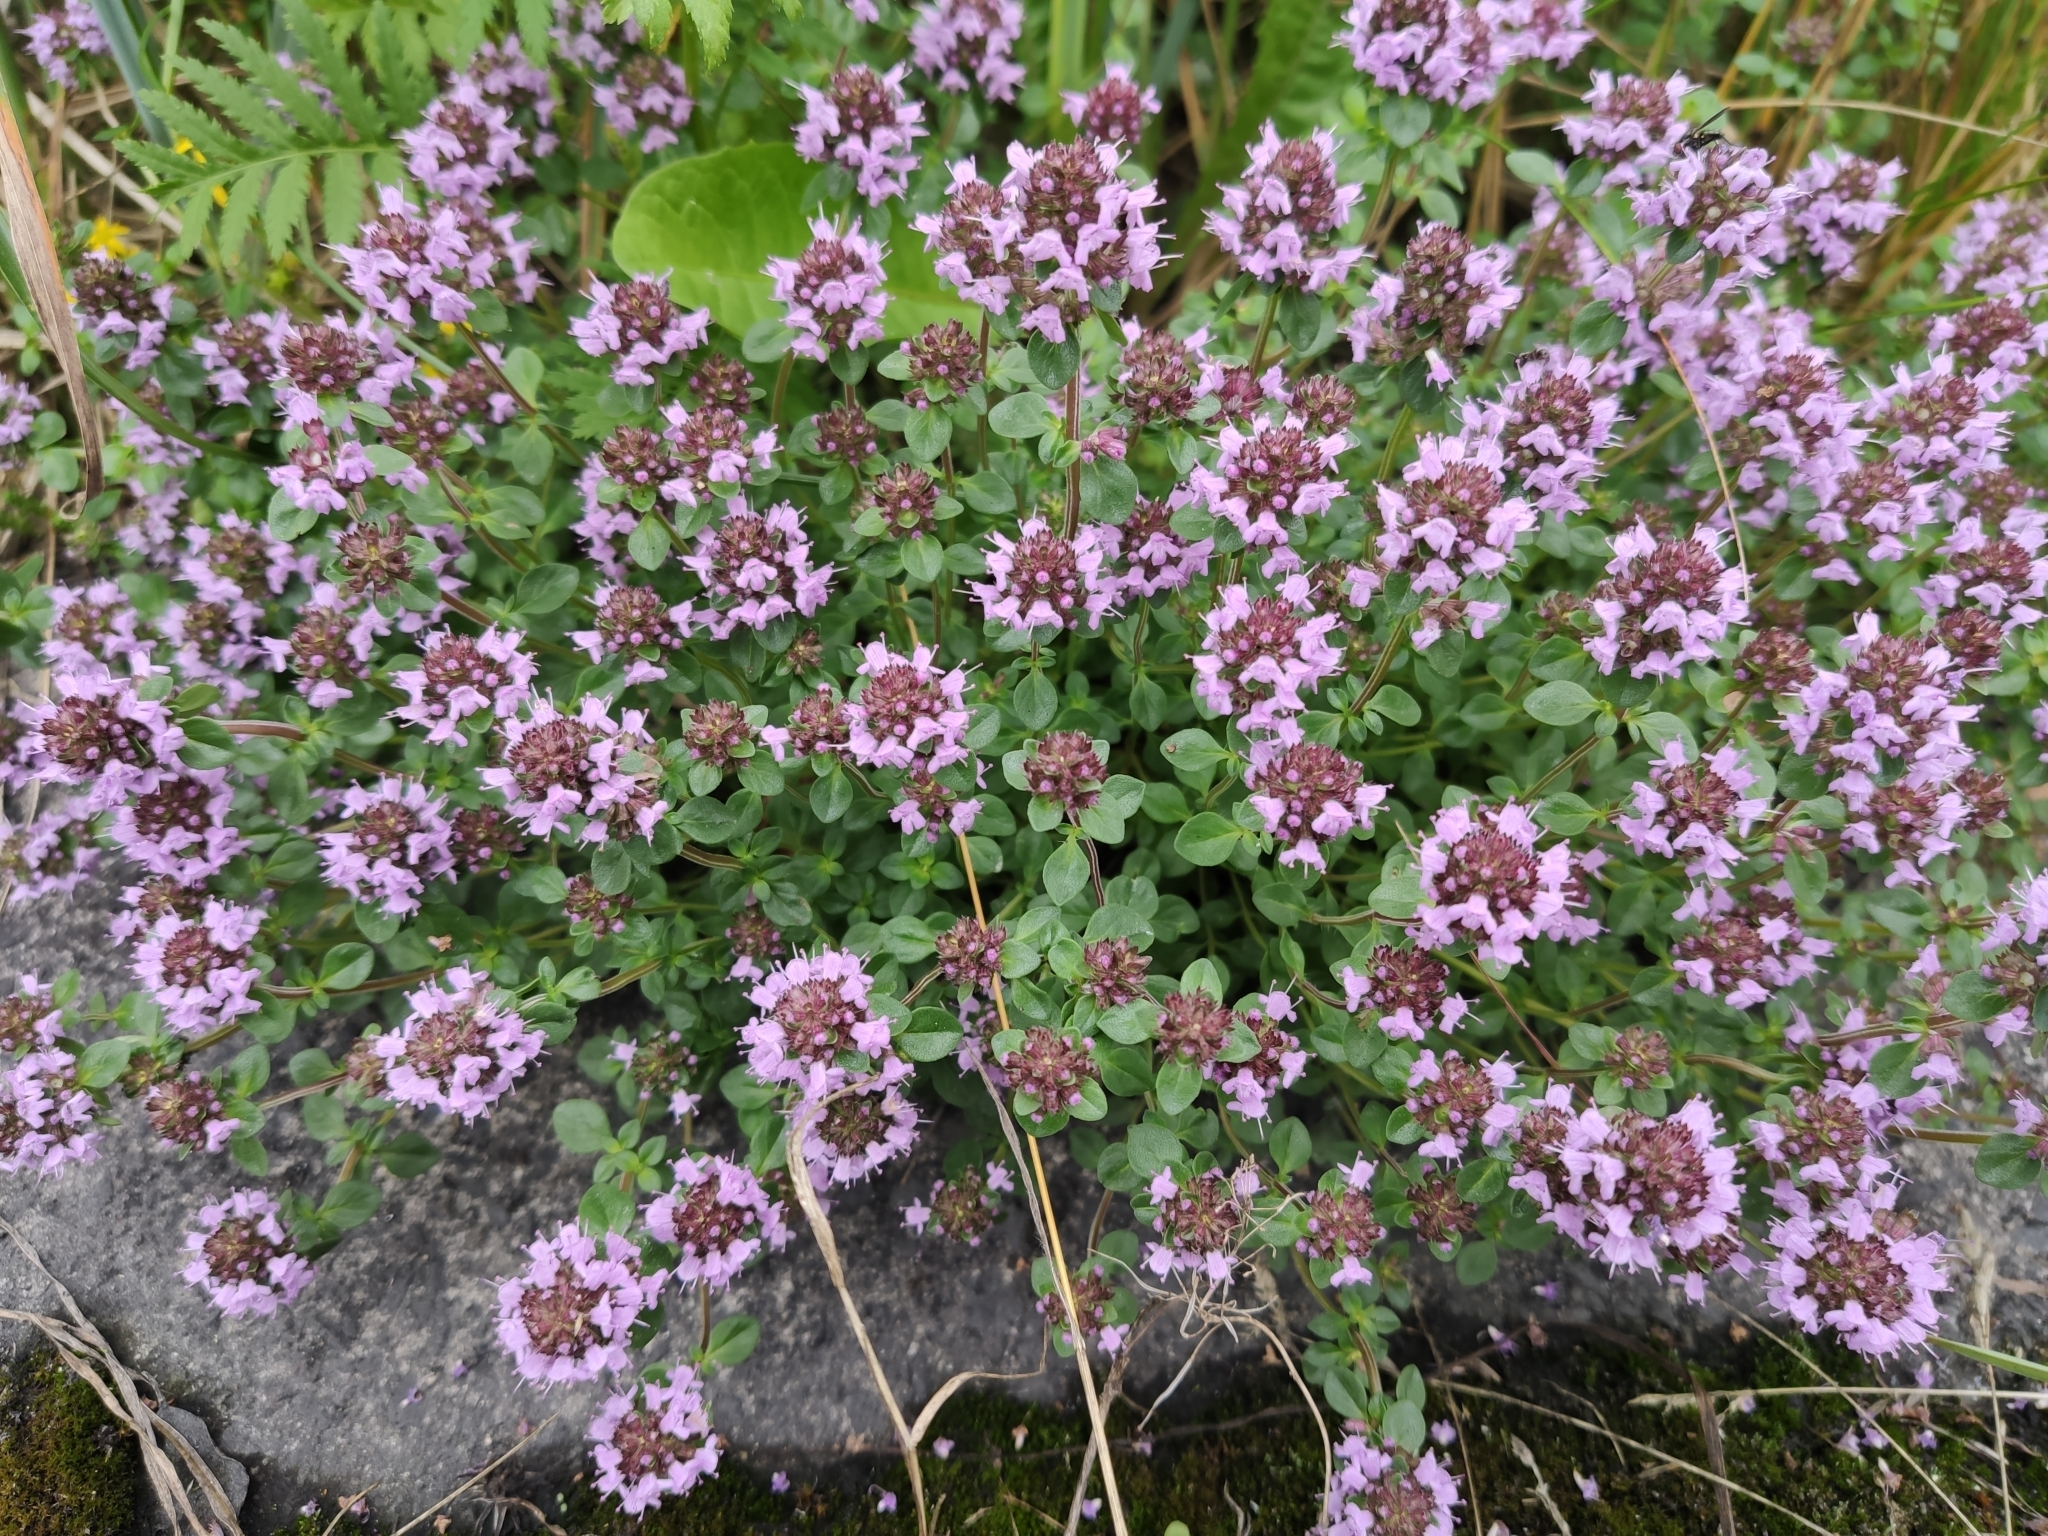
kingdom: Plantae
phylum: Tracheophyta
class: Magnoliopsida
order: Lamiales
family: Lamiaceae
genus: Thymus
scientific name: Thymus pulegioides
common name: Large thyme
